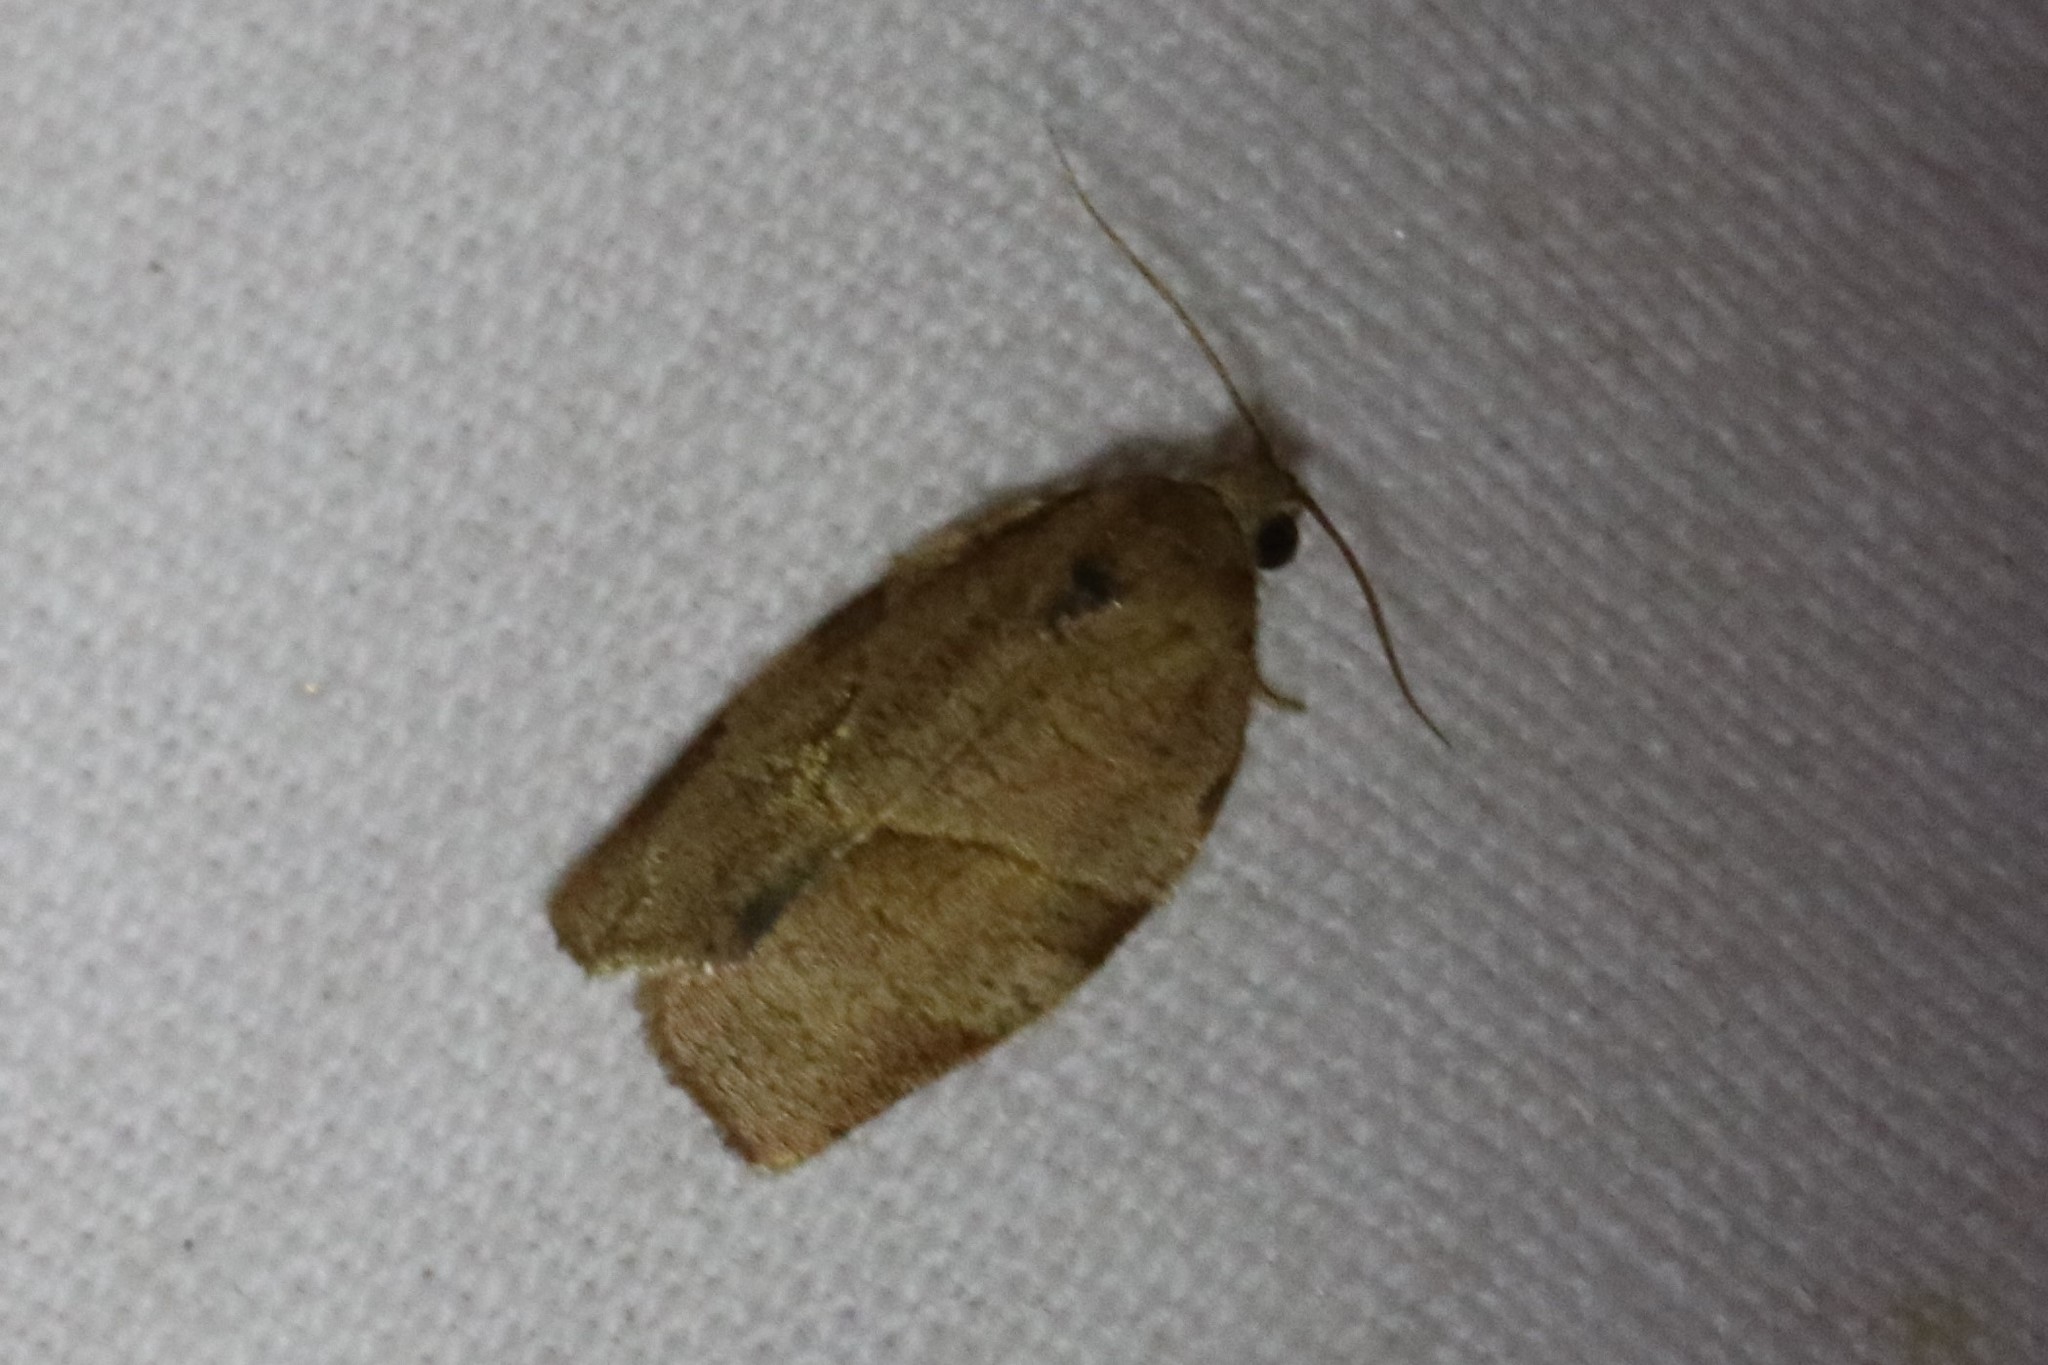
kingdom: Animalia
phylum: Arthropoda
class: Insecta
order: Lepidoptera
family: Tortricidae
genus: Choristoneura
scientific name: Choristoneura rosaceana
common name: Oblique-banded leafroller moth
